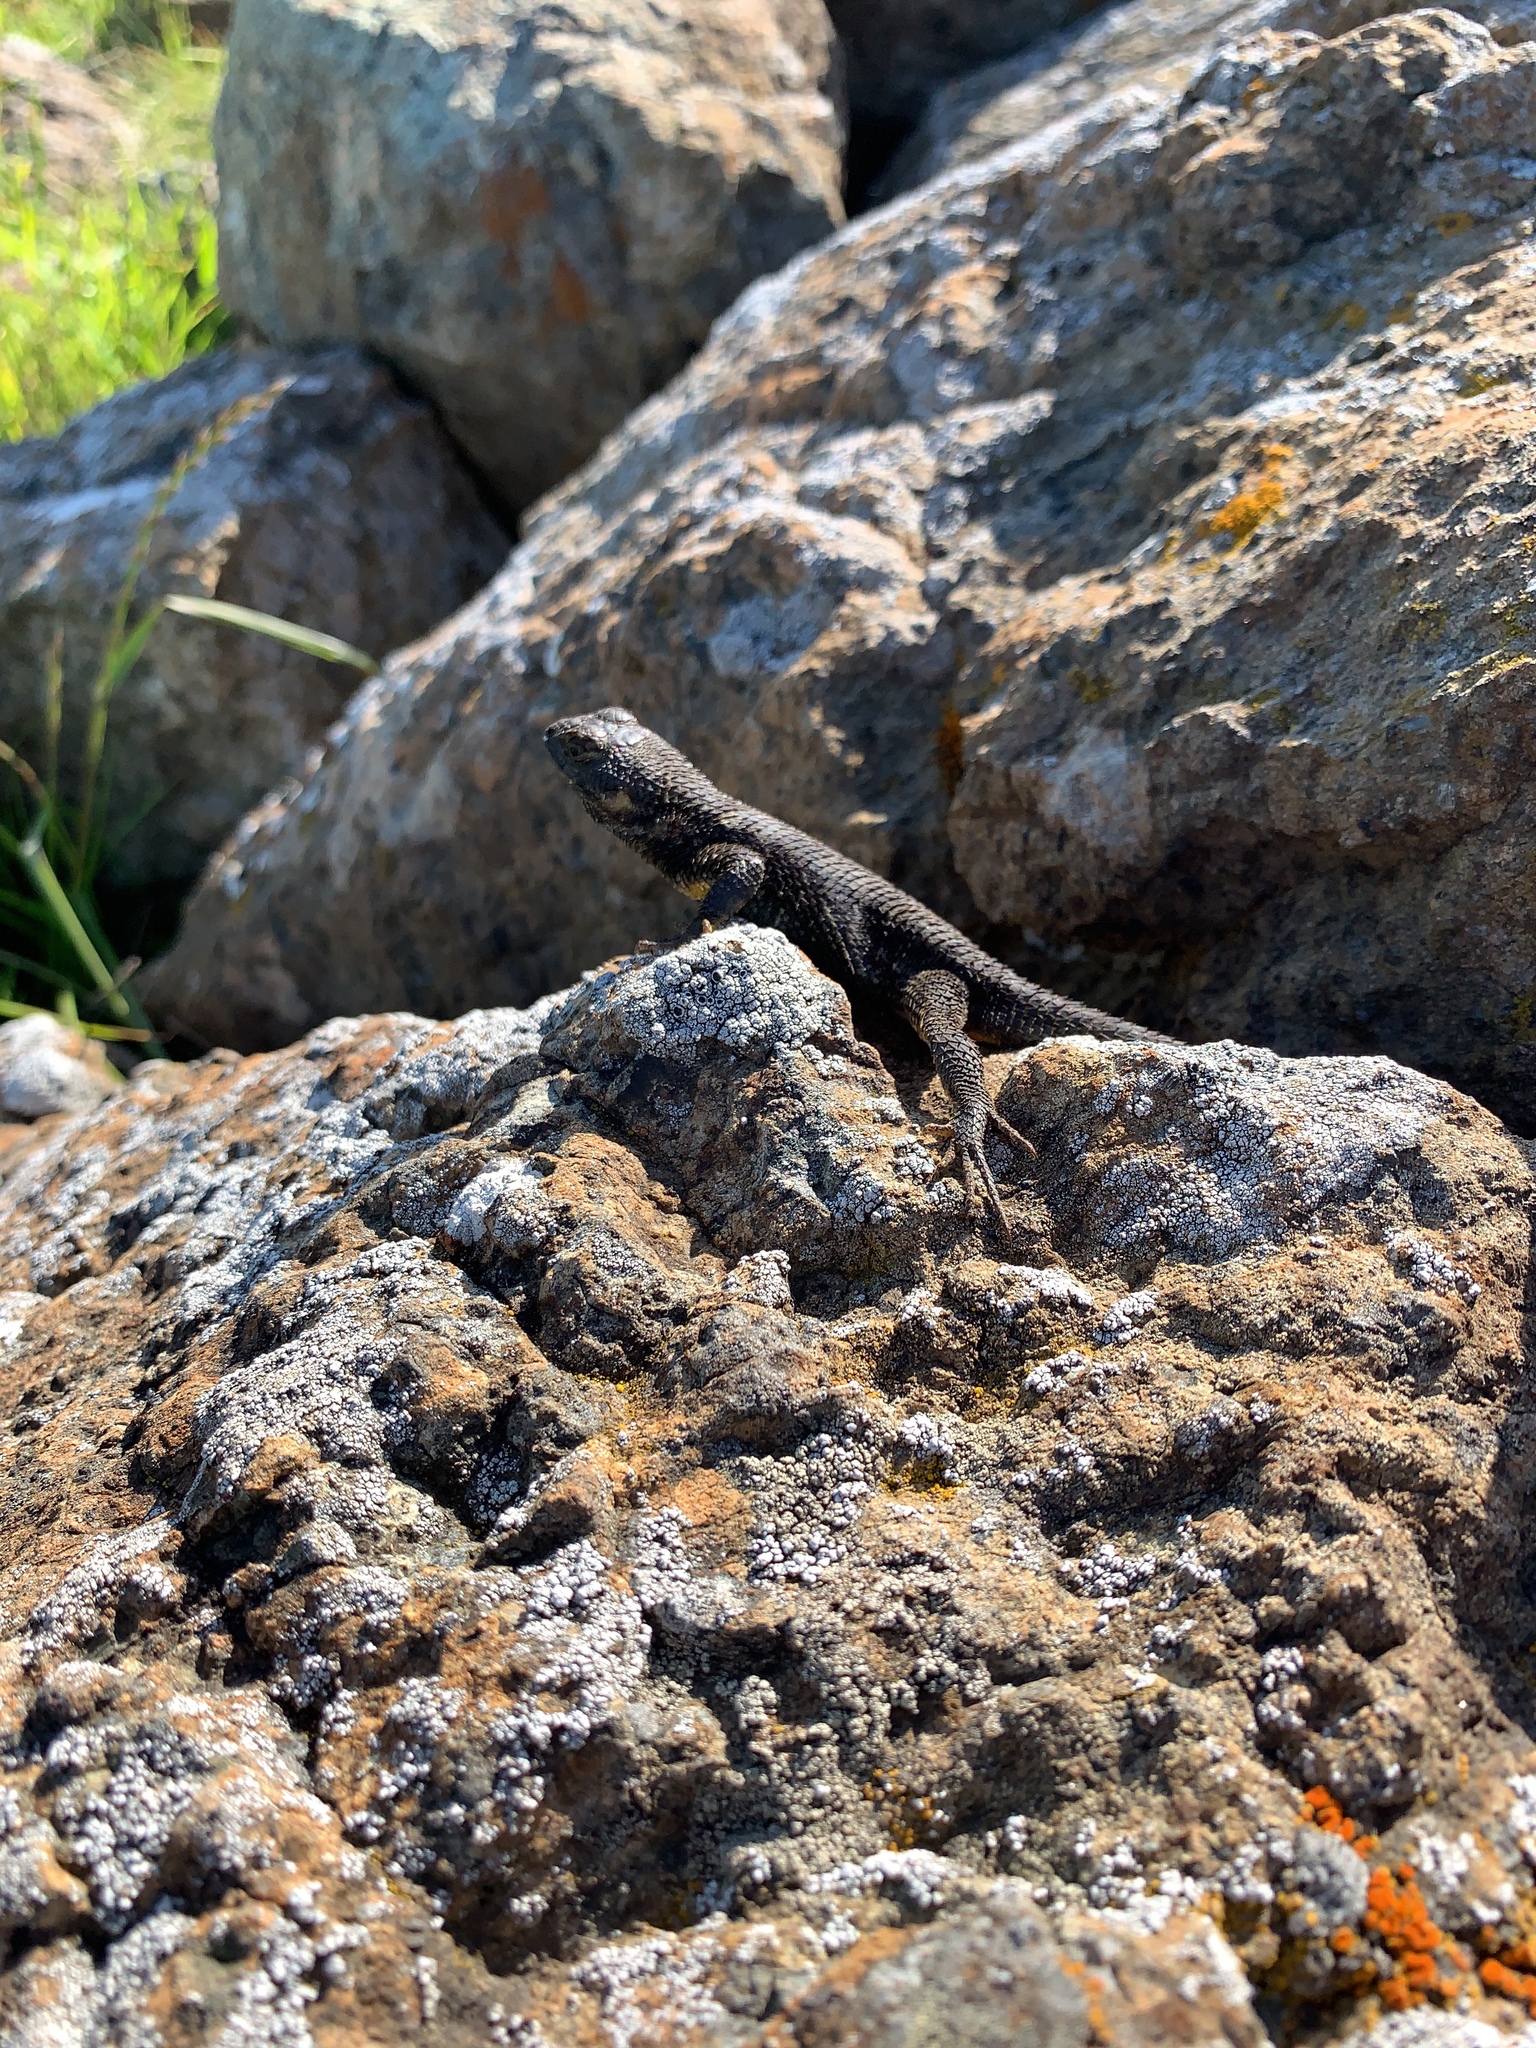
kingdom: Animalia
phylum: Chordata
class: Squamata
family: Phrynosomatidae
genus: Sceloporus
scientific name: Sceloporus occidentalis
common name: Western fence lizard
